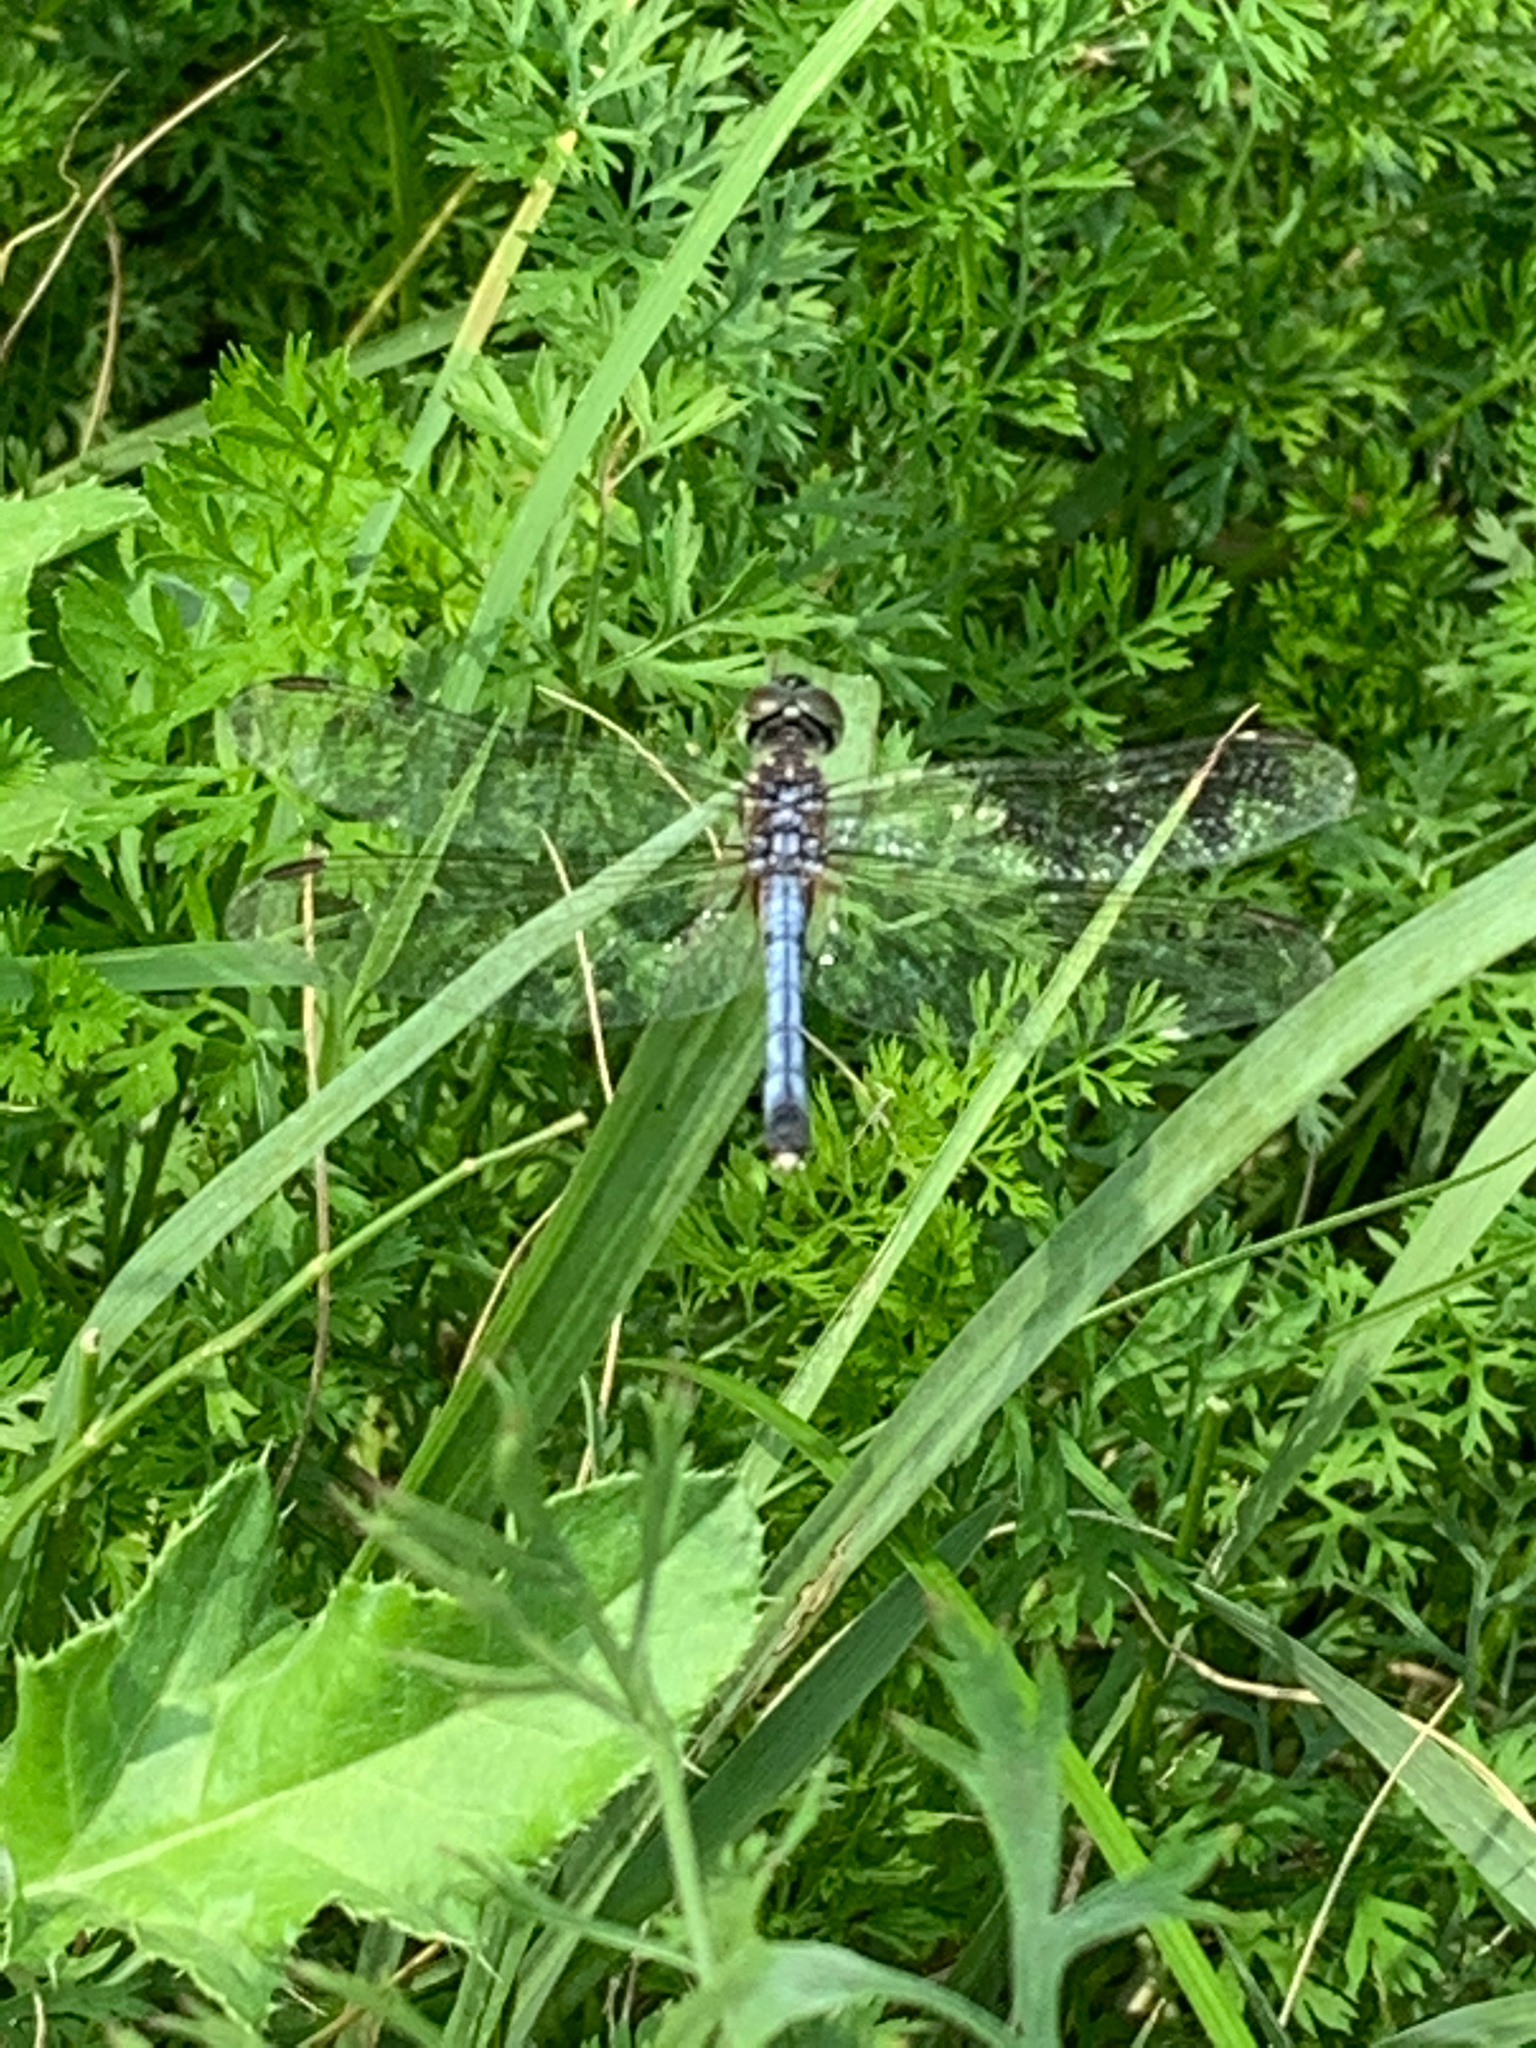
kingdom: Animalia
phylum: Arthropoda
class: Insecta
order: Odonata
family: Libellulidae
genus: Pachydiplax
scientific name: Pachydiplax longipennis
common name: Blue dasher
